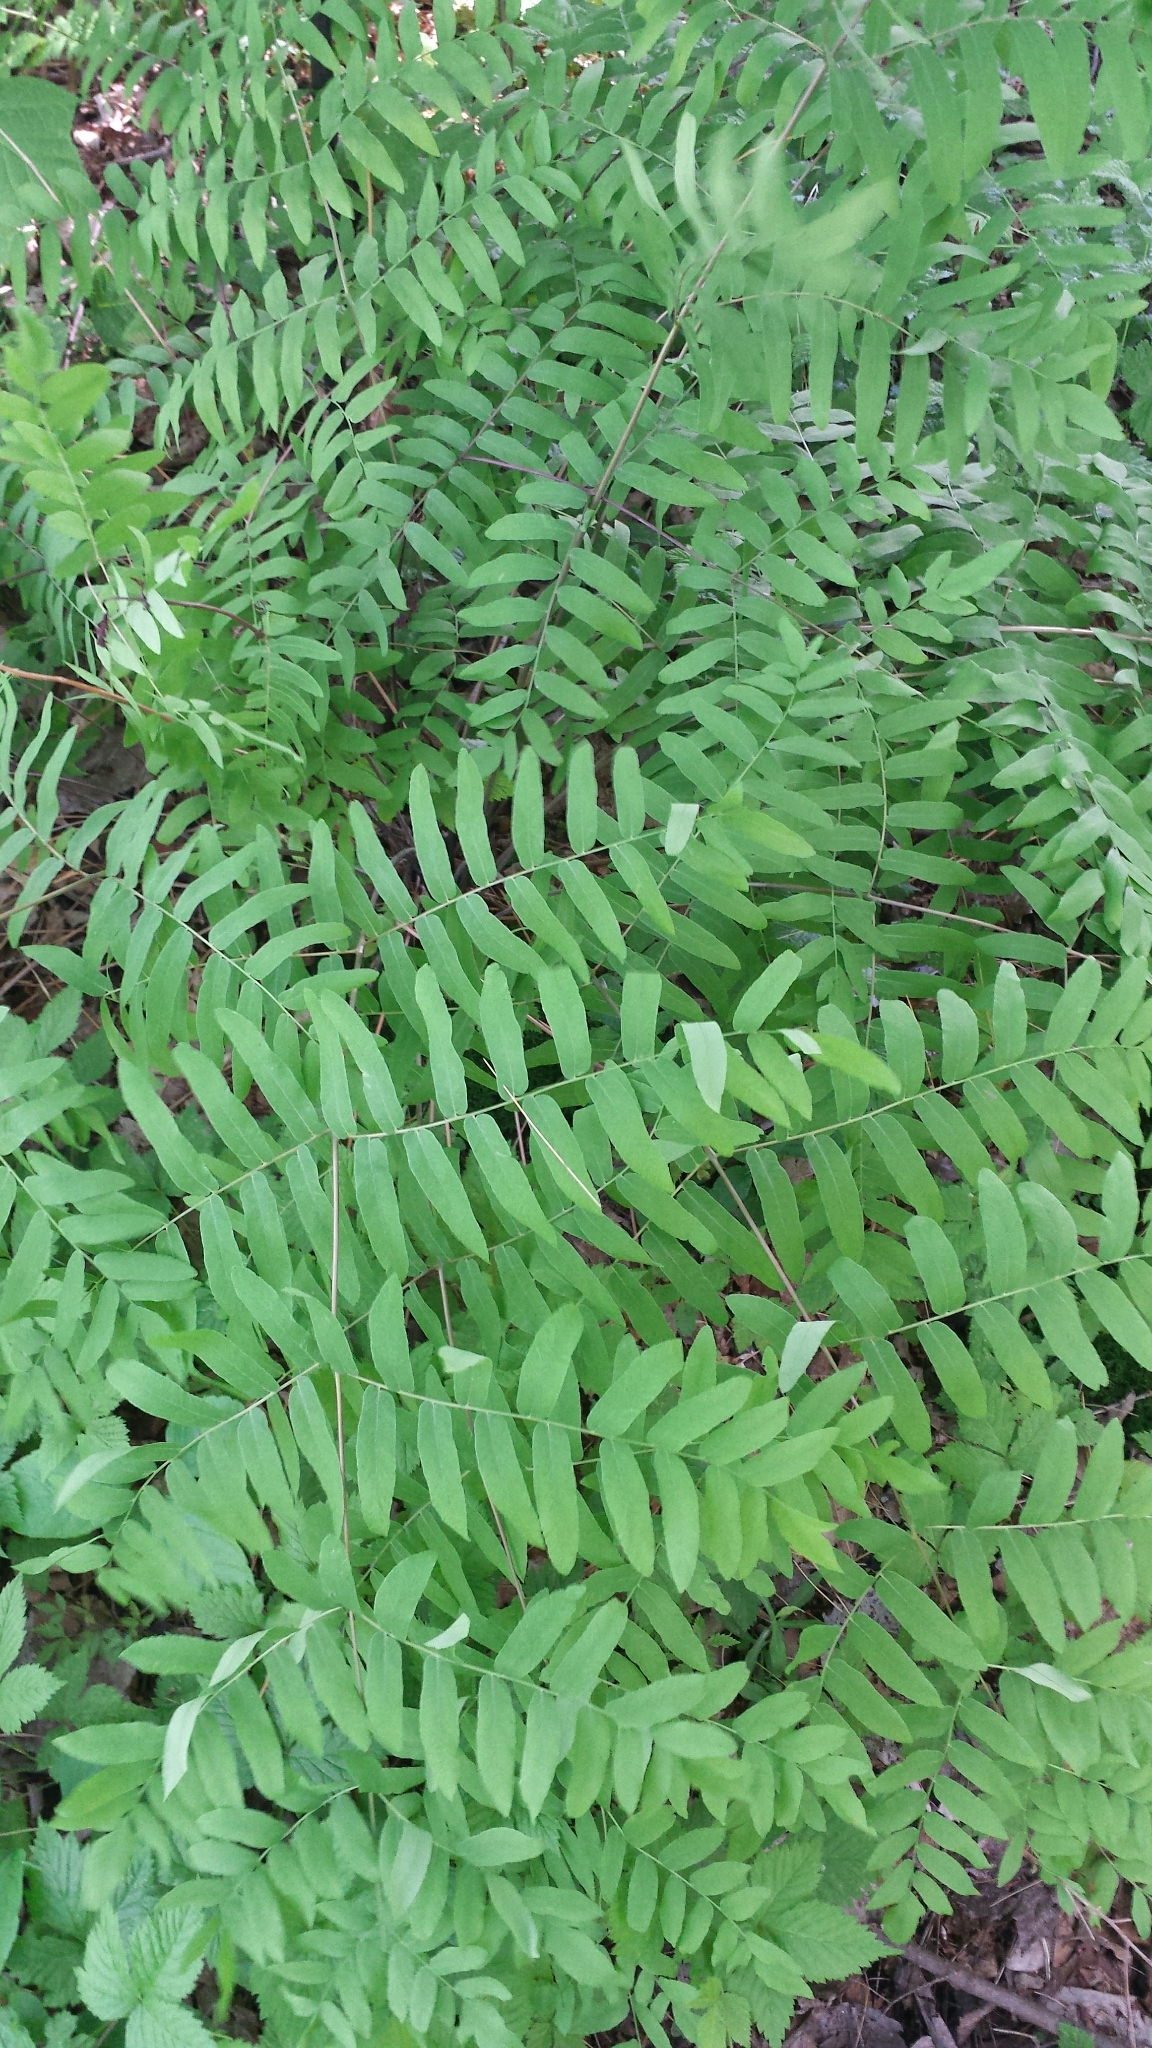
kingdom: Plantae
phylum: Tracheophyta
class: Polypodiopsida
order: Osmundales
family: Osmundaceae
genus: Osmunda
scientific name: Osmunda spectabilis
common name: American royal fern
